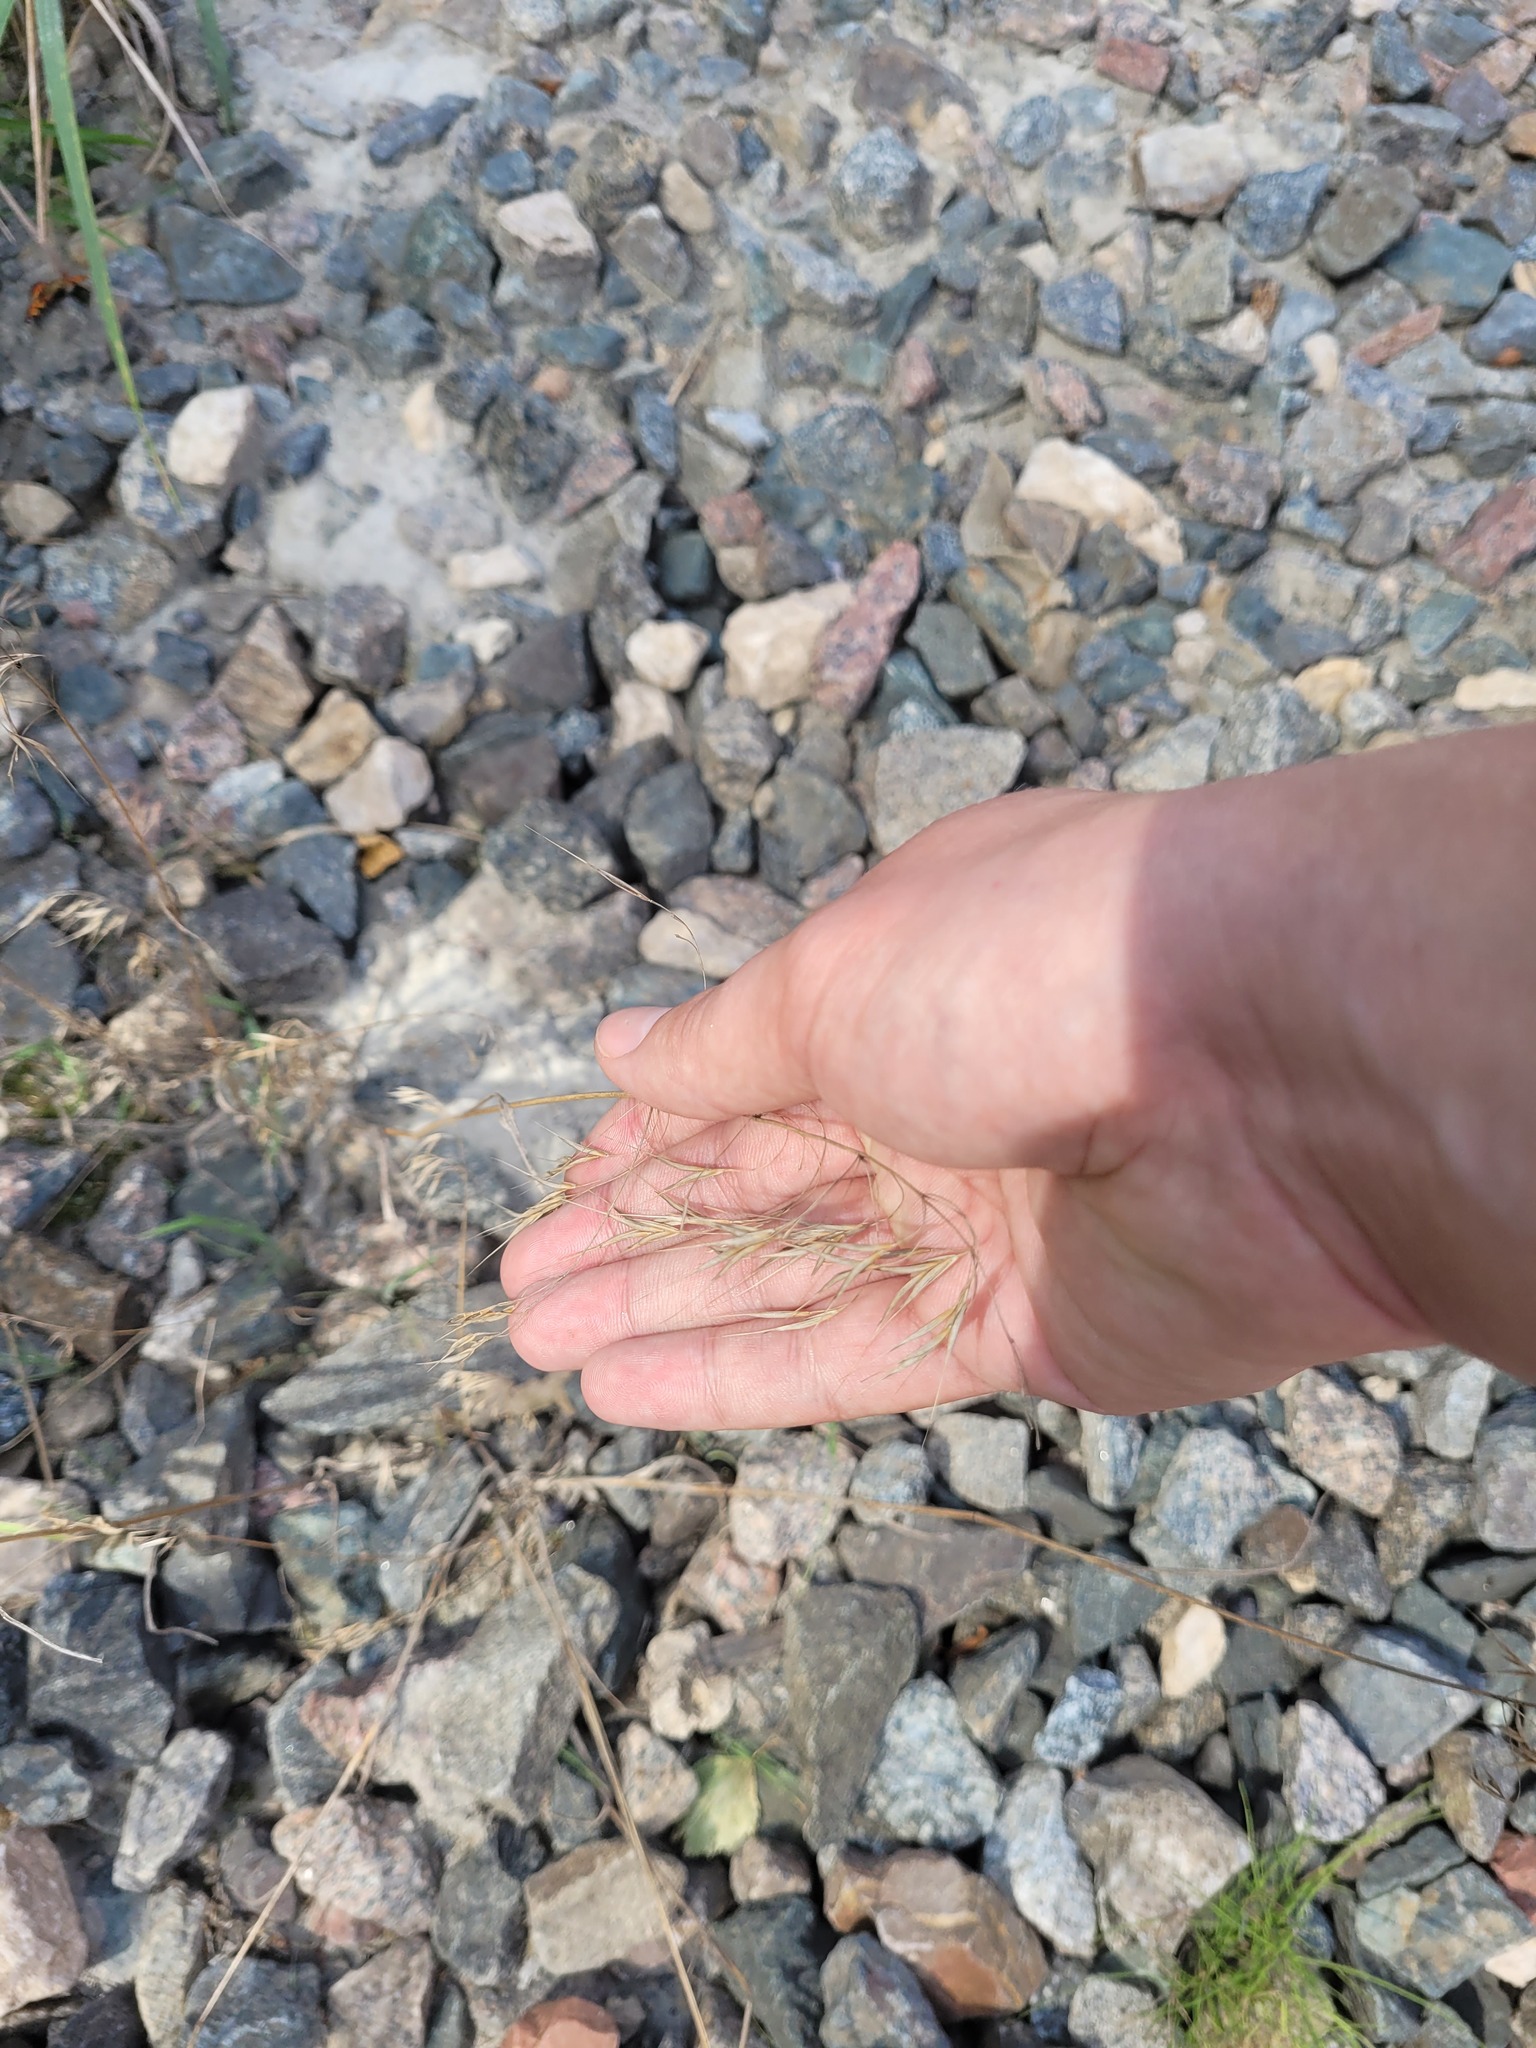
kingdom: Plantae
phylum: Tracheophyta
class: Liliopsida
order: Poales
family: Poaceae
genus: Bromus
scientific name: Bromus tectorum
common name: Cheatgrass
